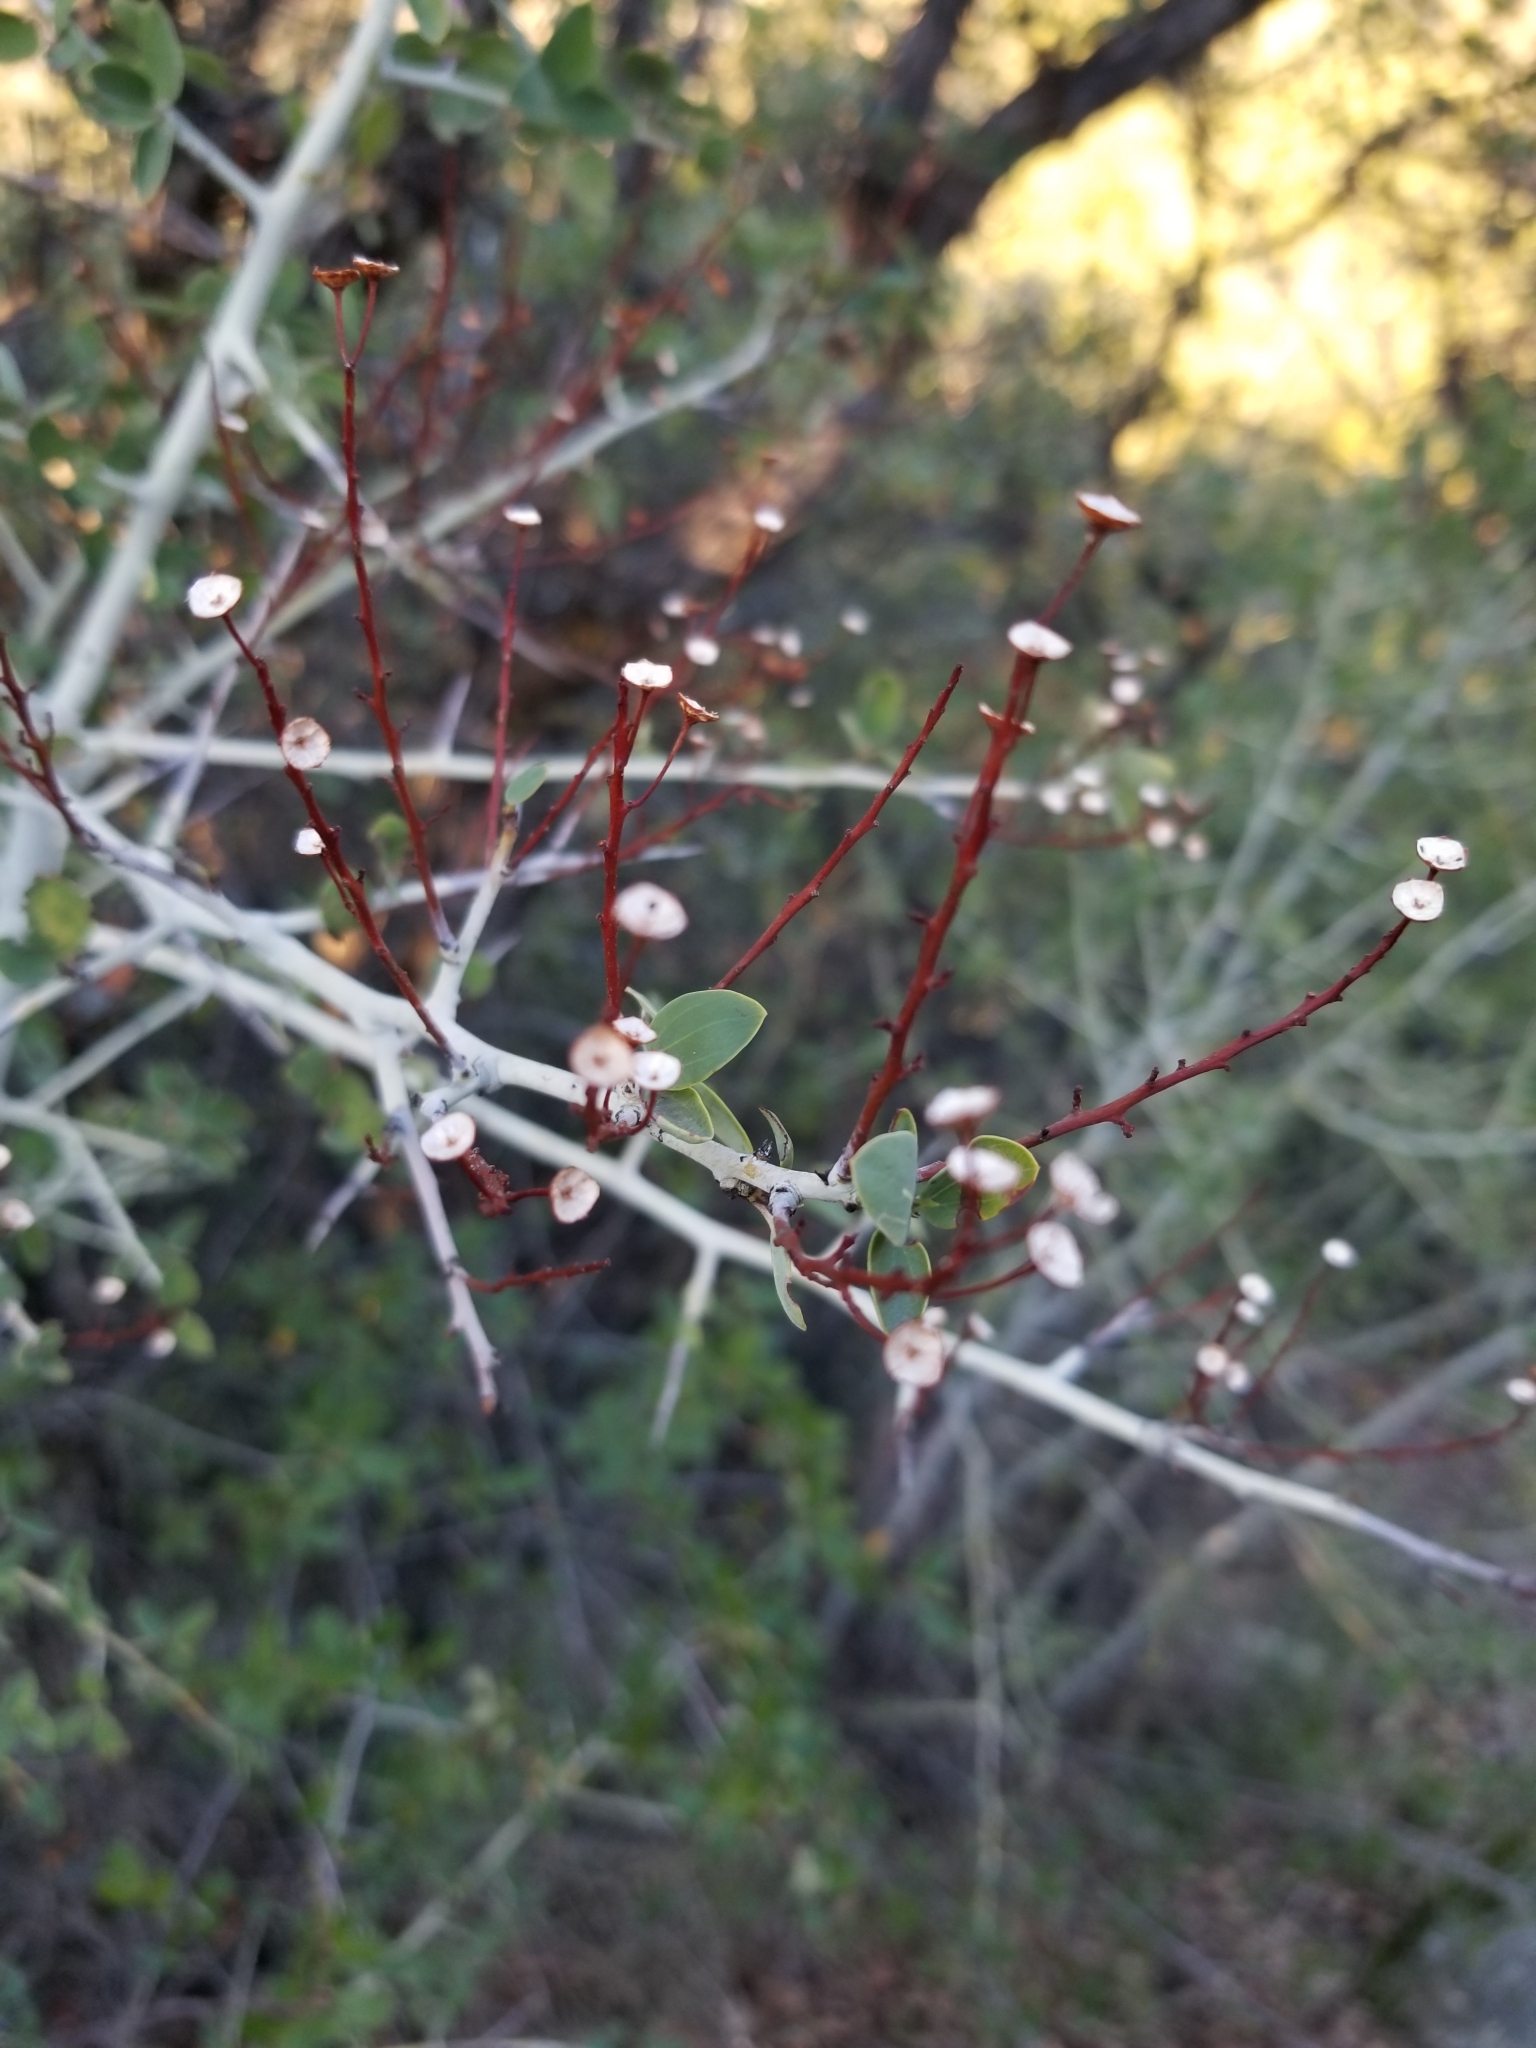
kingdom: Plantae
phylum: Tracheophyta
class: Magnoliopsida
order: Rosales
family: Rhamnaceae
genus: Ceanothus
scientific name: Ceanothus leucodermis
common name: Chaparral whitethorn
